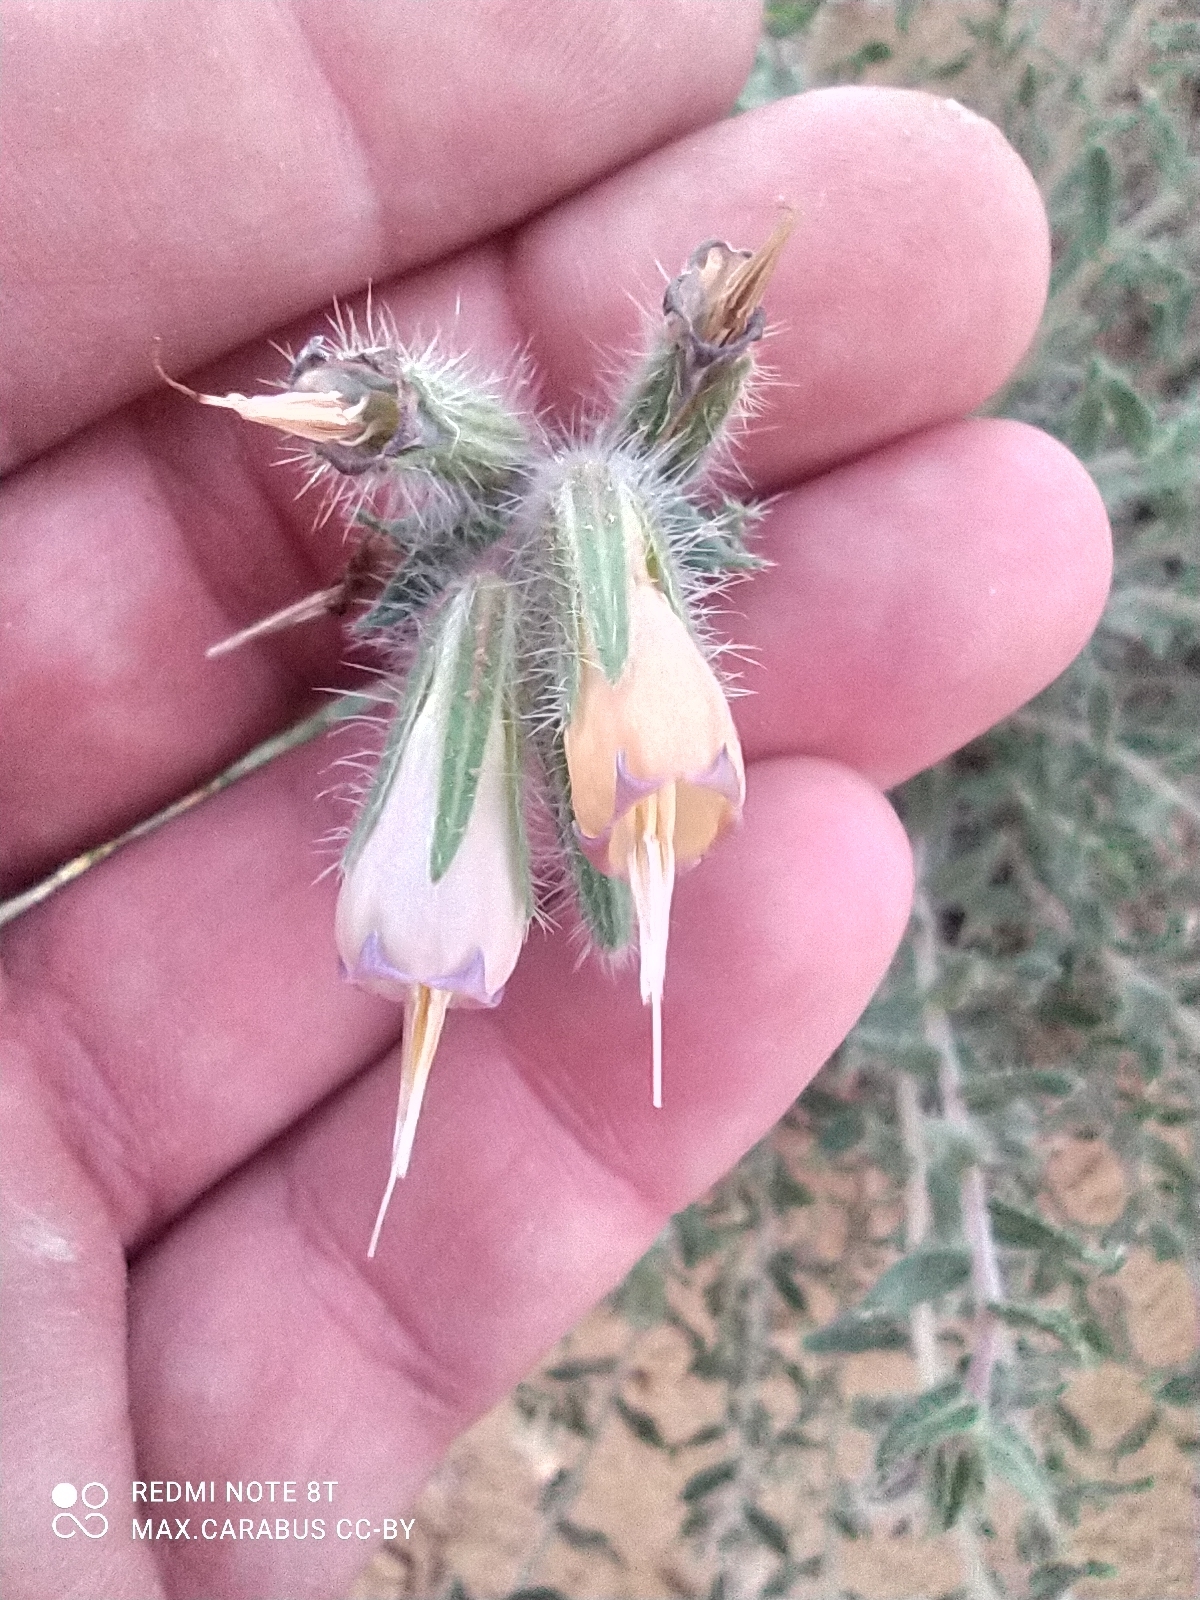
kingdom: Plantae
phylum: Tracheophyta
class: Magnoliopsida
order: Boraginales
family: Boraginaceae
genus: Onosma
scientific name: Onosma staminea
